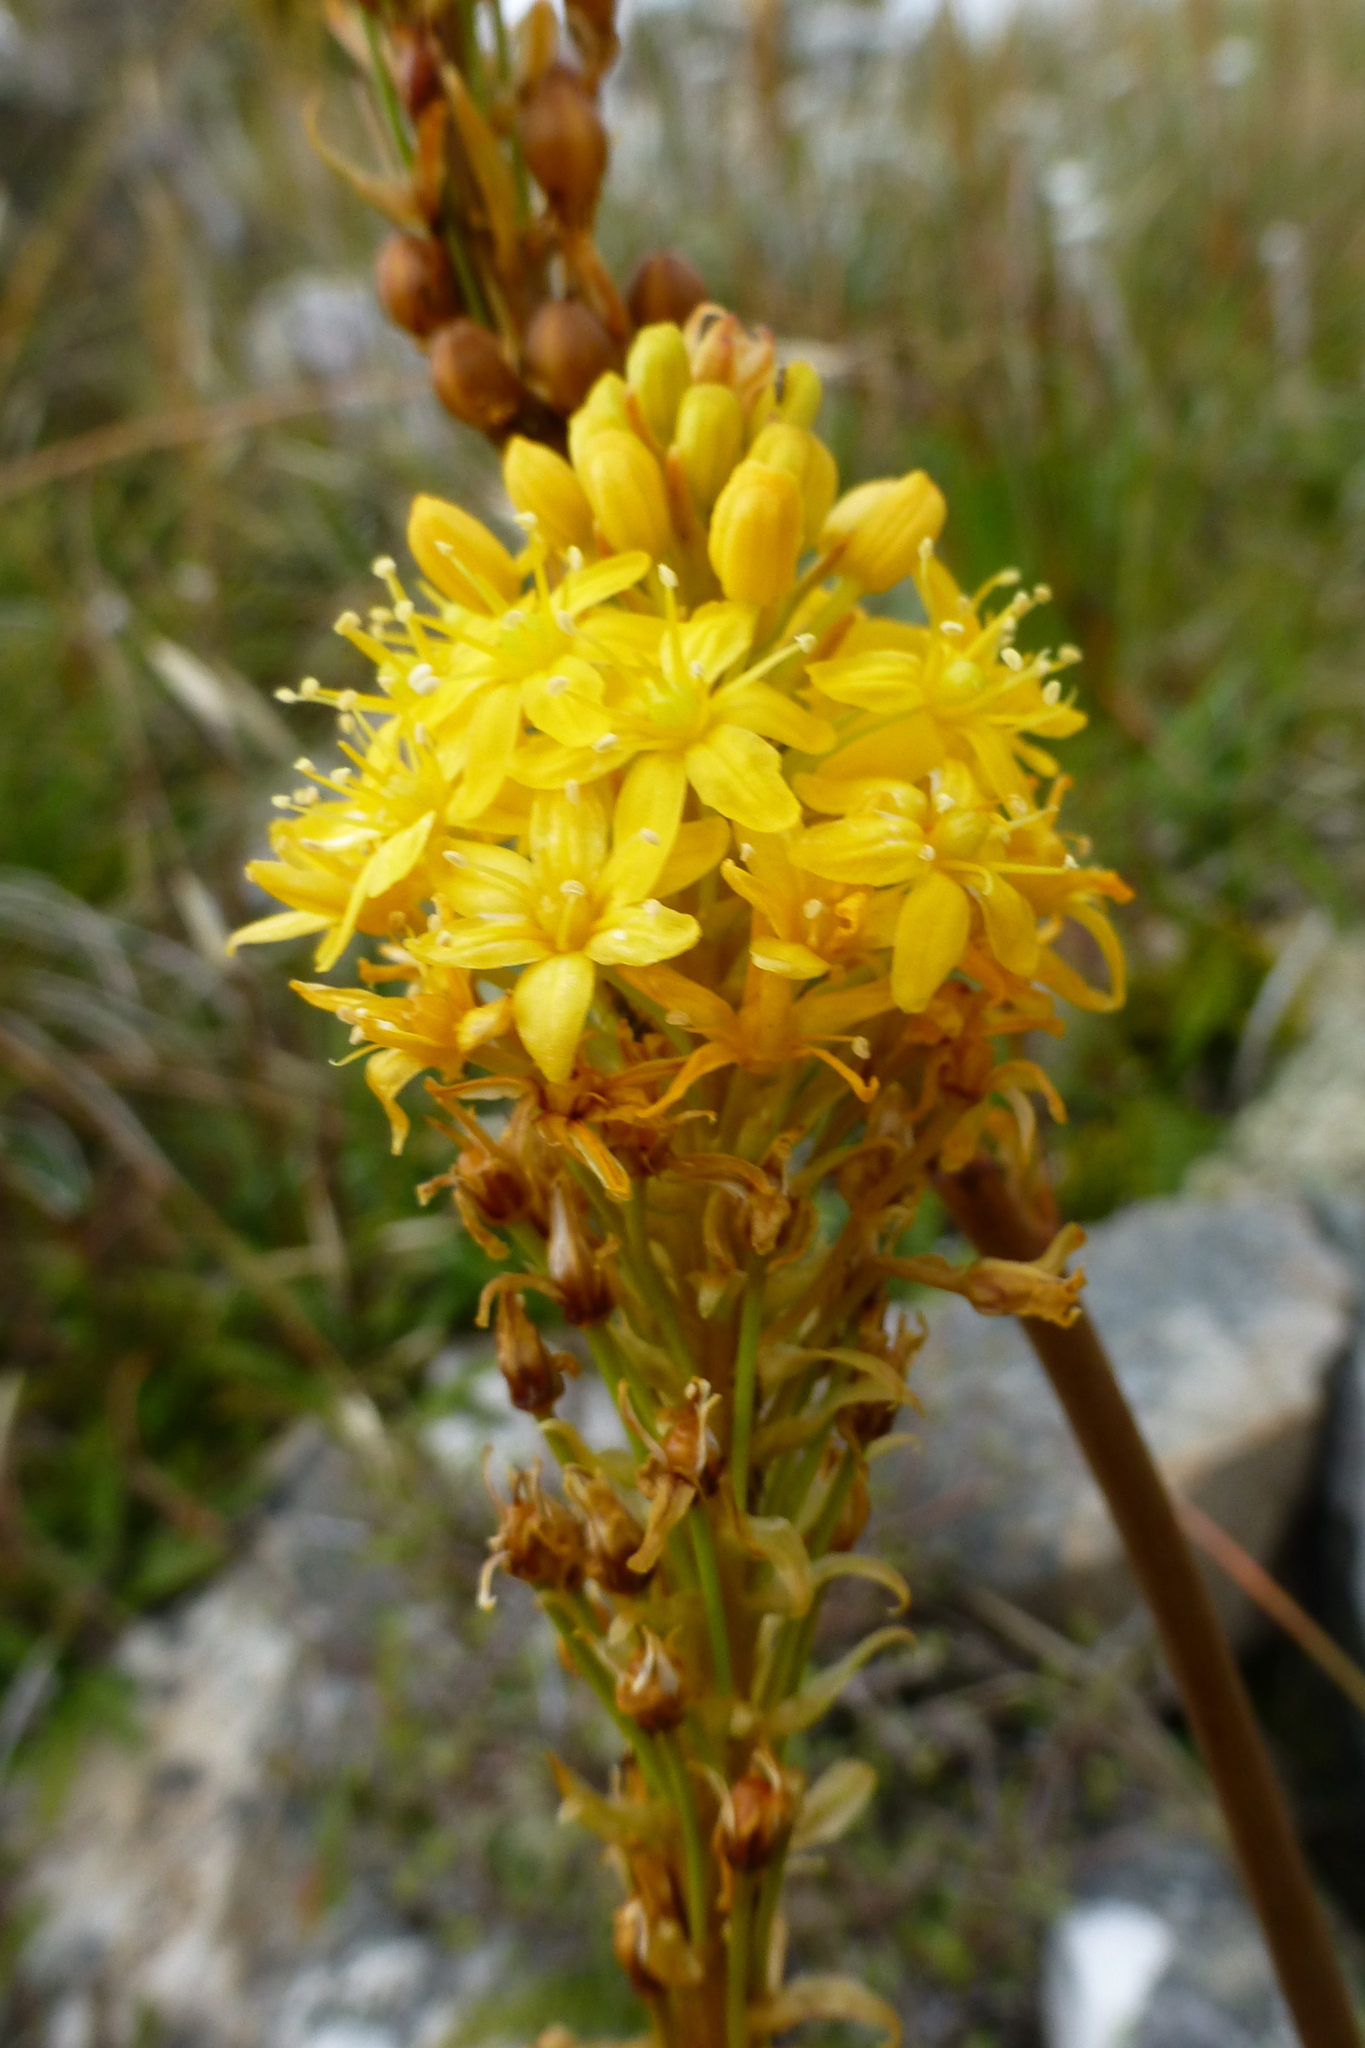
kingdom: Plantae
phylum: Tracheophyta
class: Liliopsida
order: Asparagales
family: Asphodelaceae
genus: Bulbinella
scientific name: Bulbinella angustifolia
